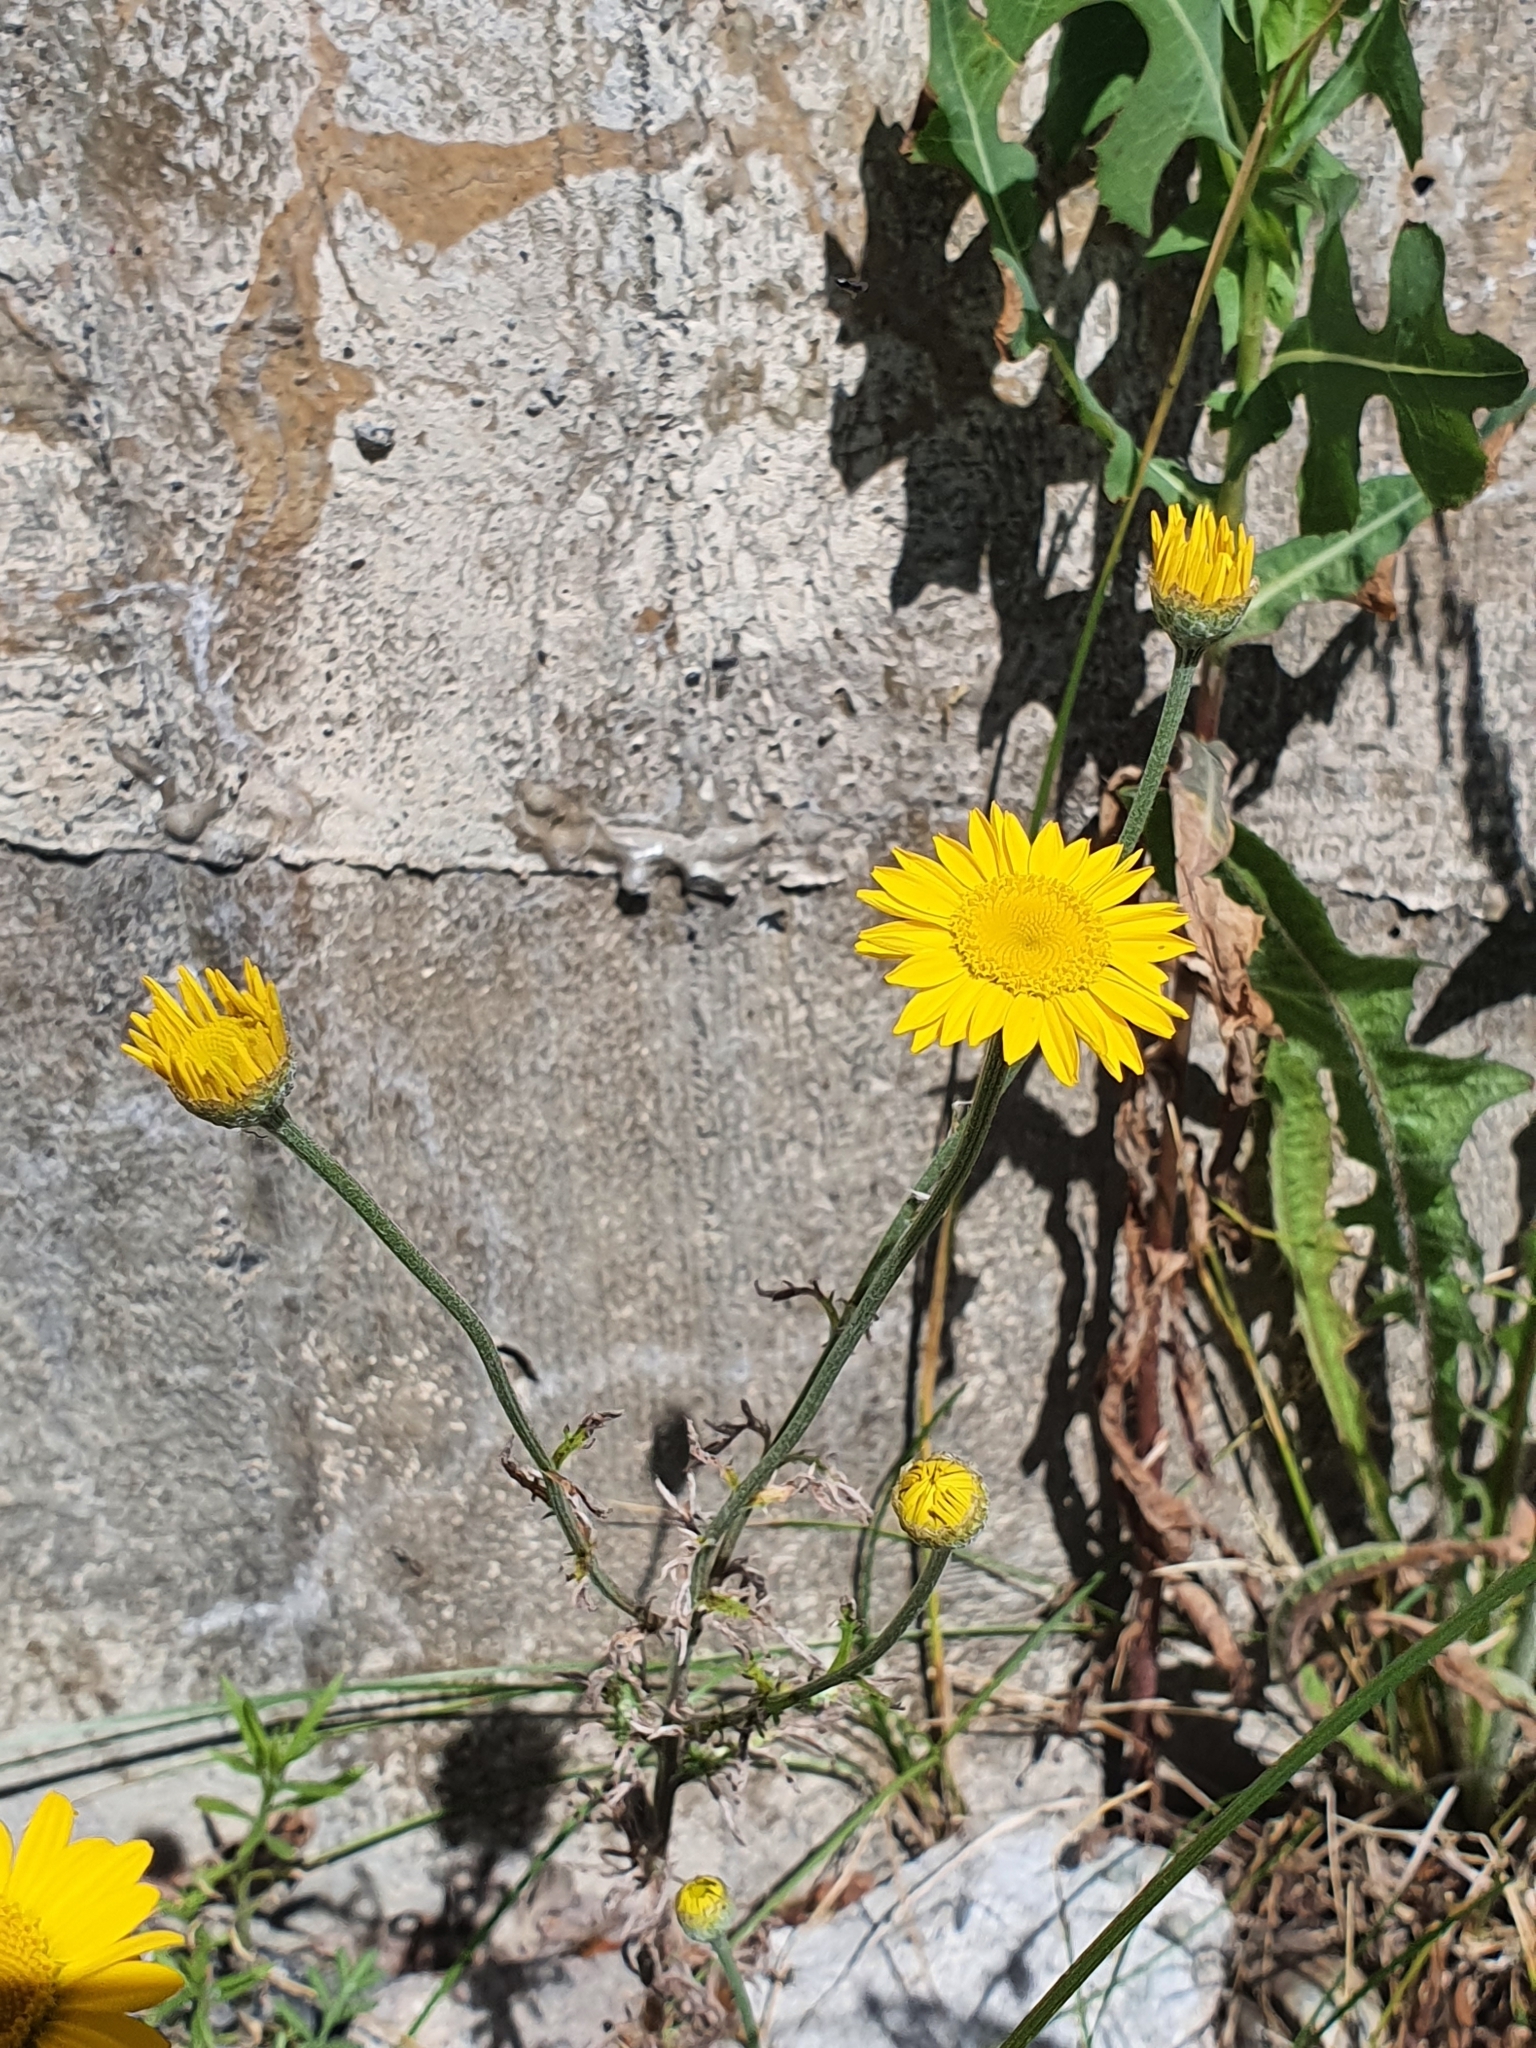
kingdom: Plantae
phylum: Tracheophyta
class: Magnoliopsida
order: Asterales
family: Asteraceae
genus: Cota
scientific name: Cota tinctoria
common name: Golden chamomile
